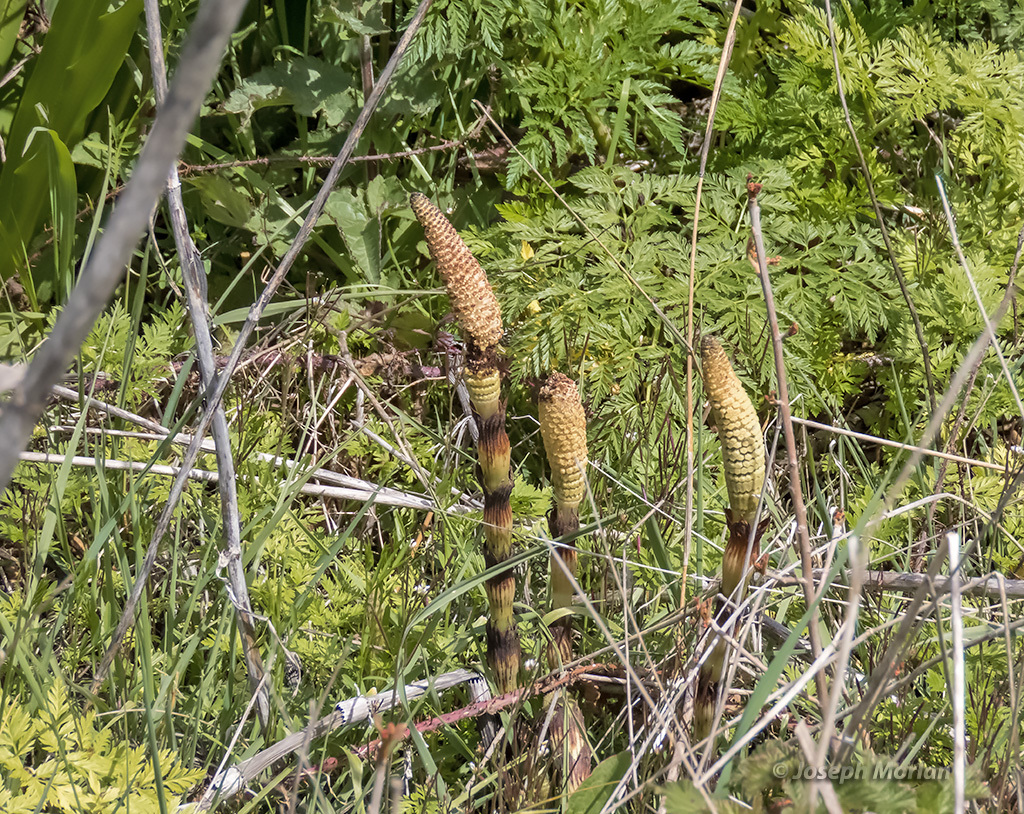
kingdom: Plantae
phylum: Tracheophyta
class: Polypodiopsida
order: Equisetales
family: Equisetaceae
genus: Equisetum
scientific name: Equisetum telmateia
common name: Great horsetail
